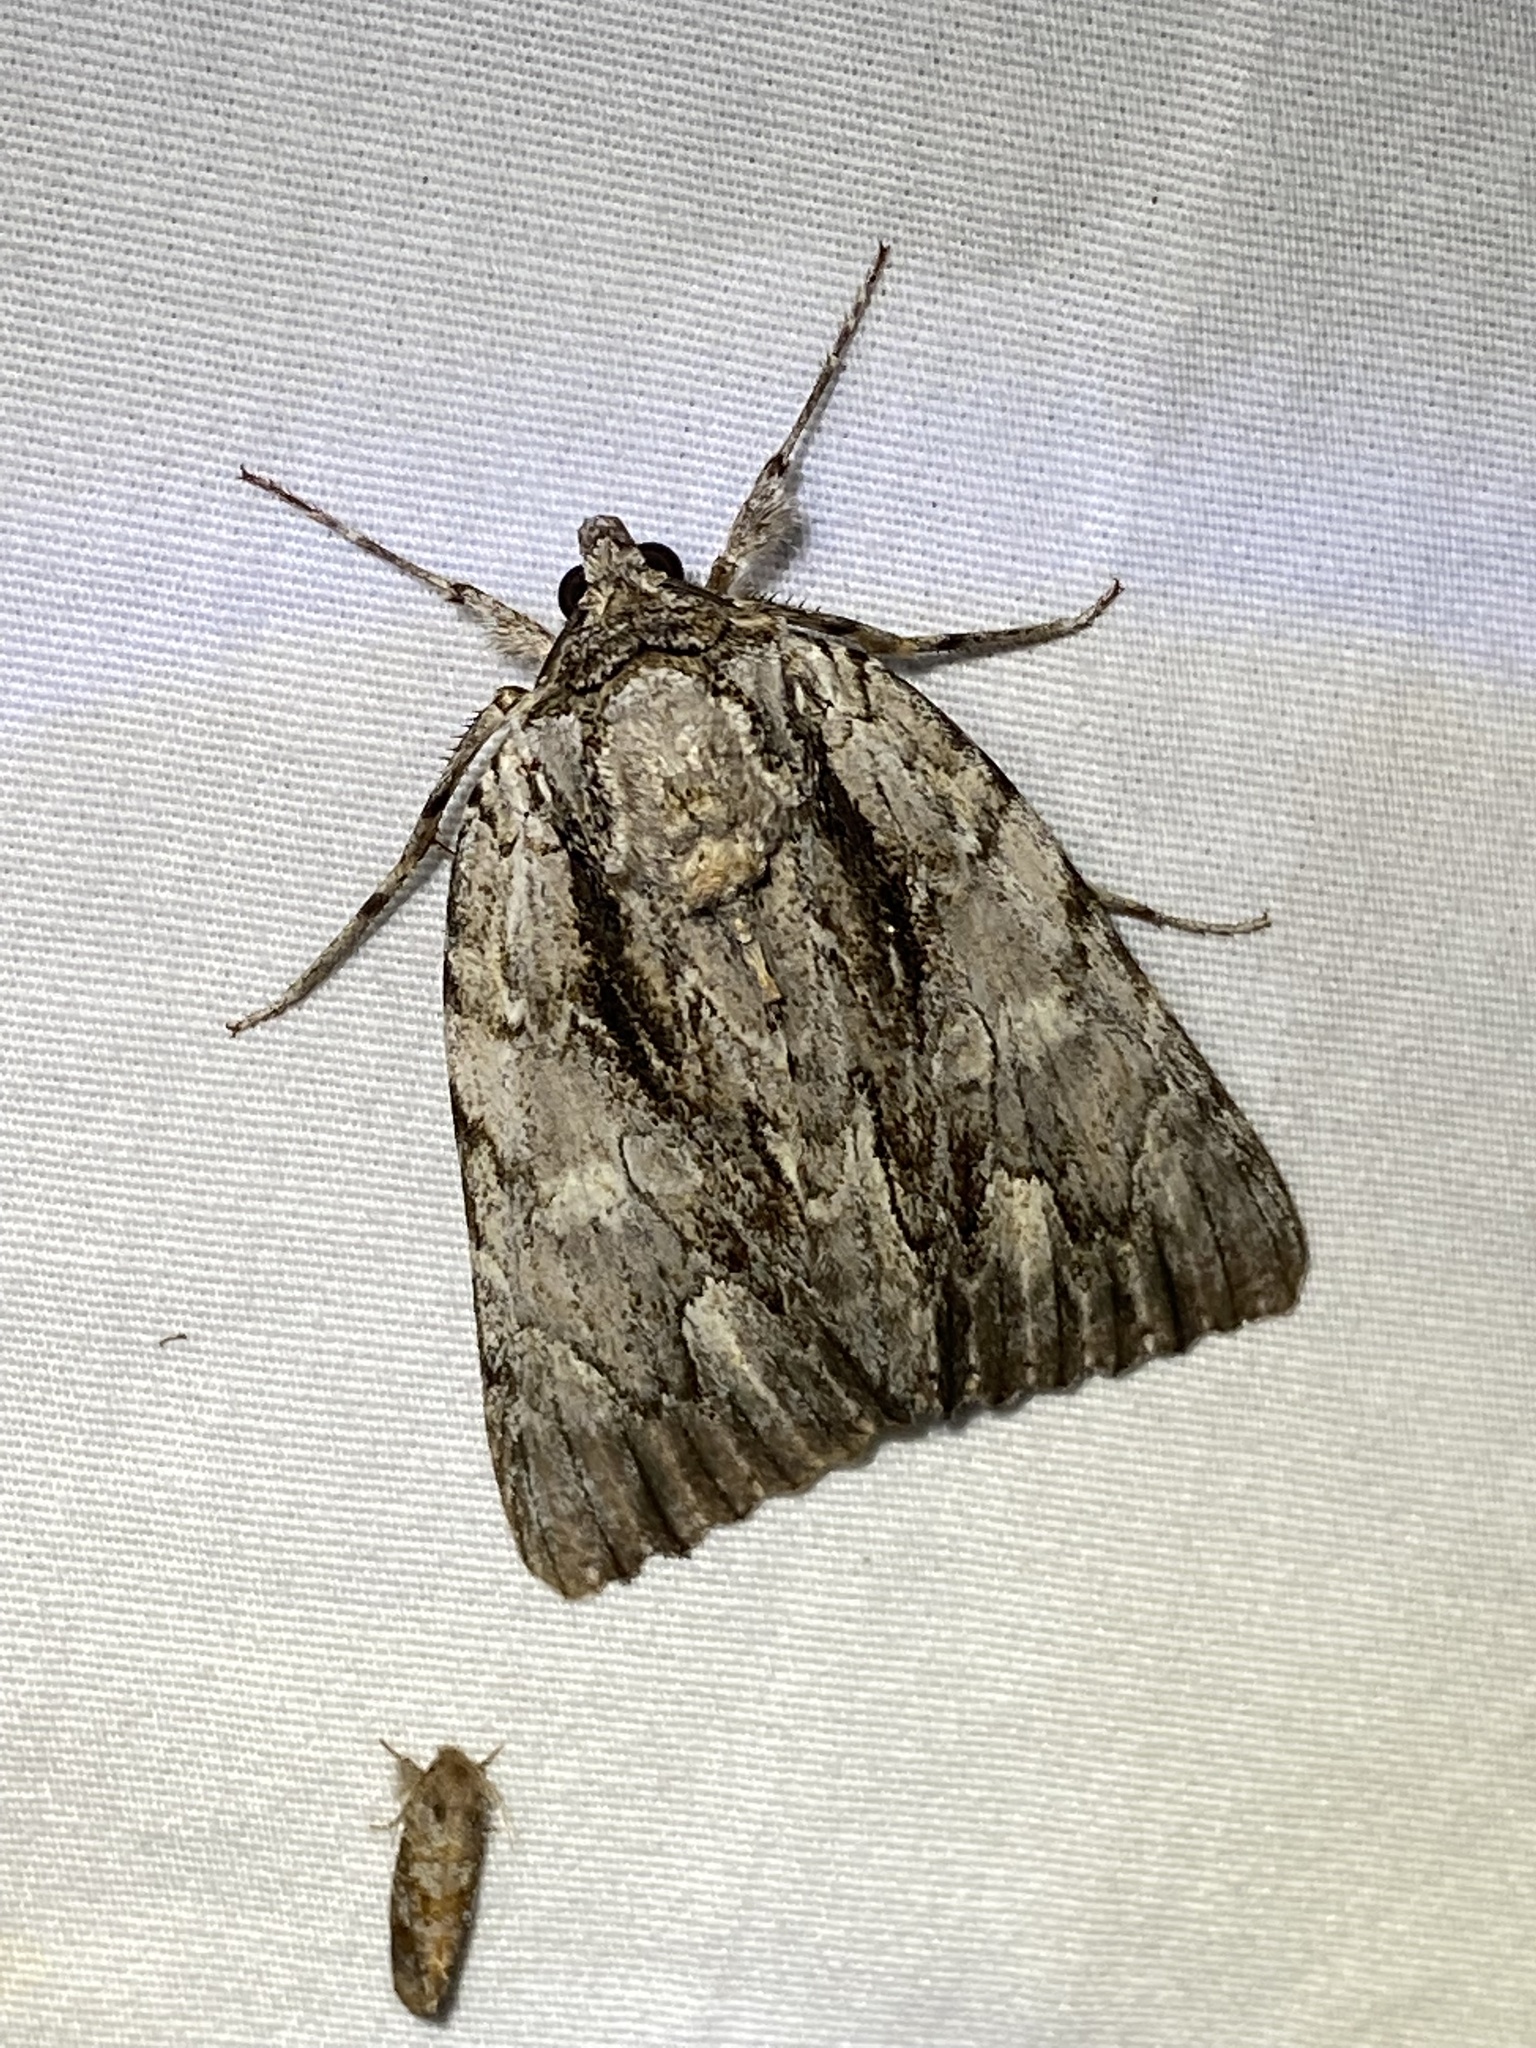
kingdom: Animalia
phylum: Arthropoda
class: Insecta
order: Lepidoptera
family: Erebidae
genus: Catocala
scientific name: Catocala coccinata
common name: Scarlet underwing
